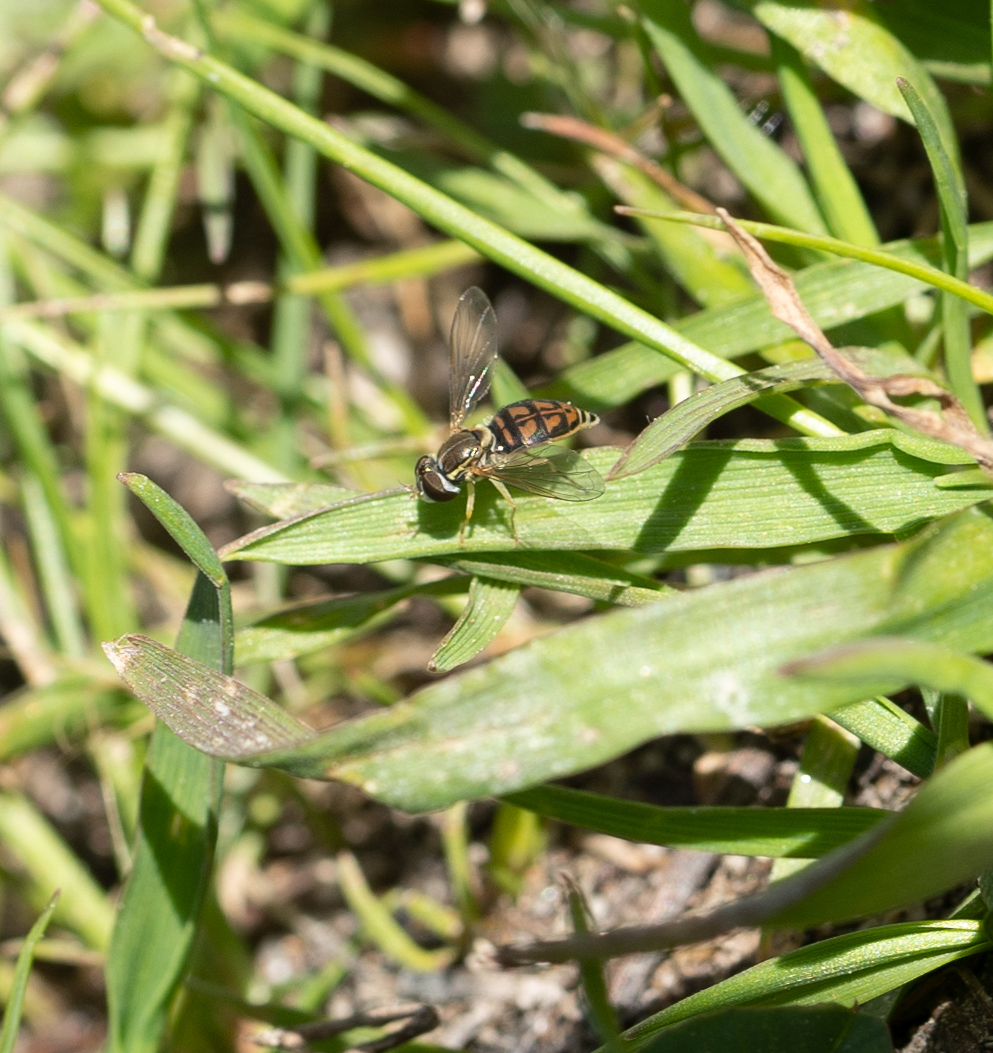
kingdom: Animalia
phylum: Arthropoda
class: Insecta
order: Diptera
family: Syrphidae
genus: Toxomerus
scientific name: Toxomerus marginatus
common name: Syrphid fly
